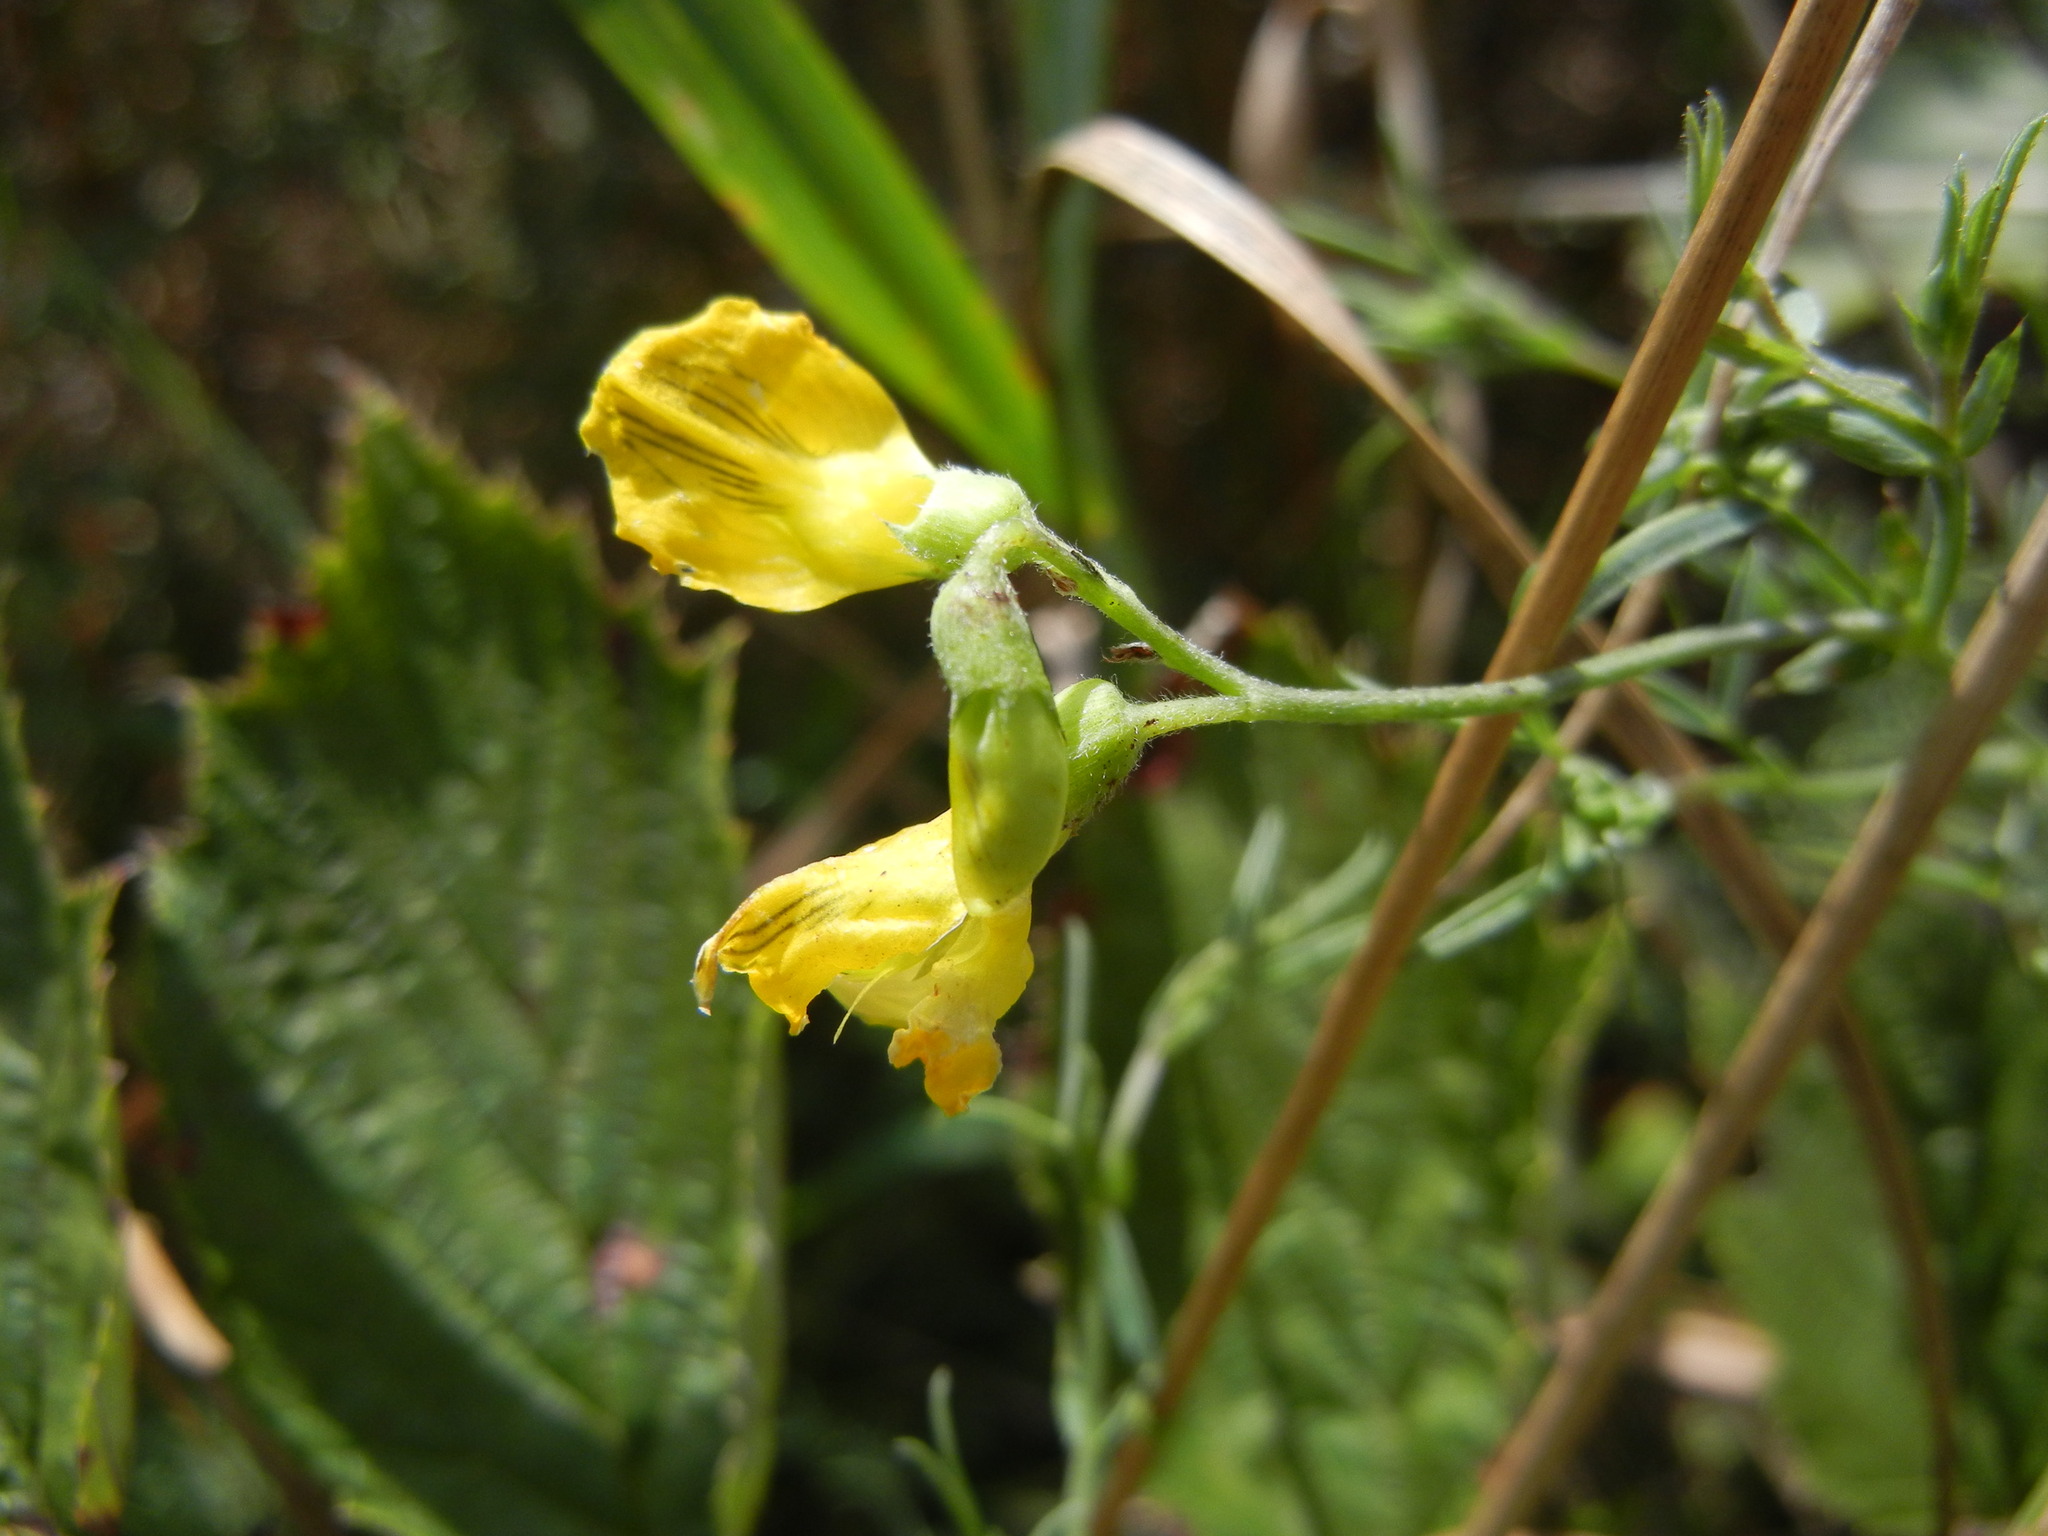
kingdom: Plantae
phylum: Tracheophyta
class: Magnoliopsida
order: Fabales
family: Fabaceae
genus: Lathyrus
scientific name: Lathyrus pratensis
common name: Meadow vetchling
